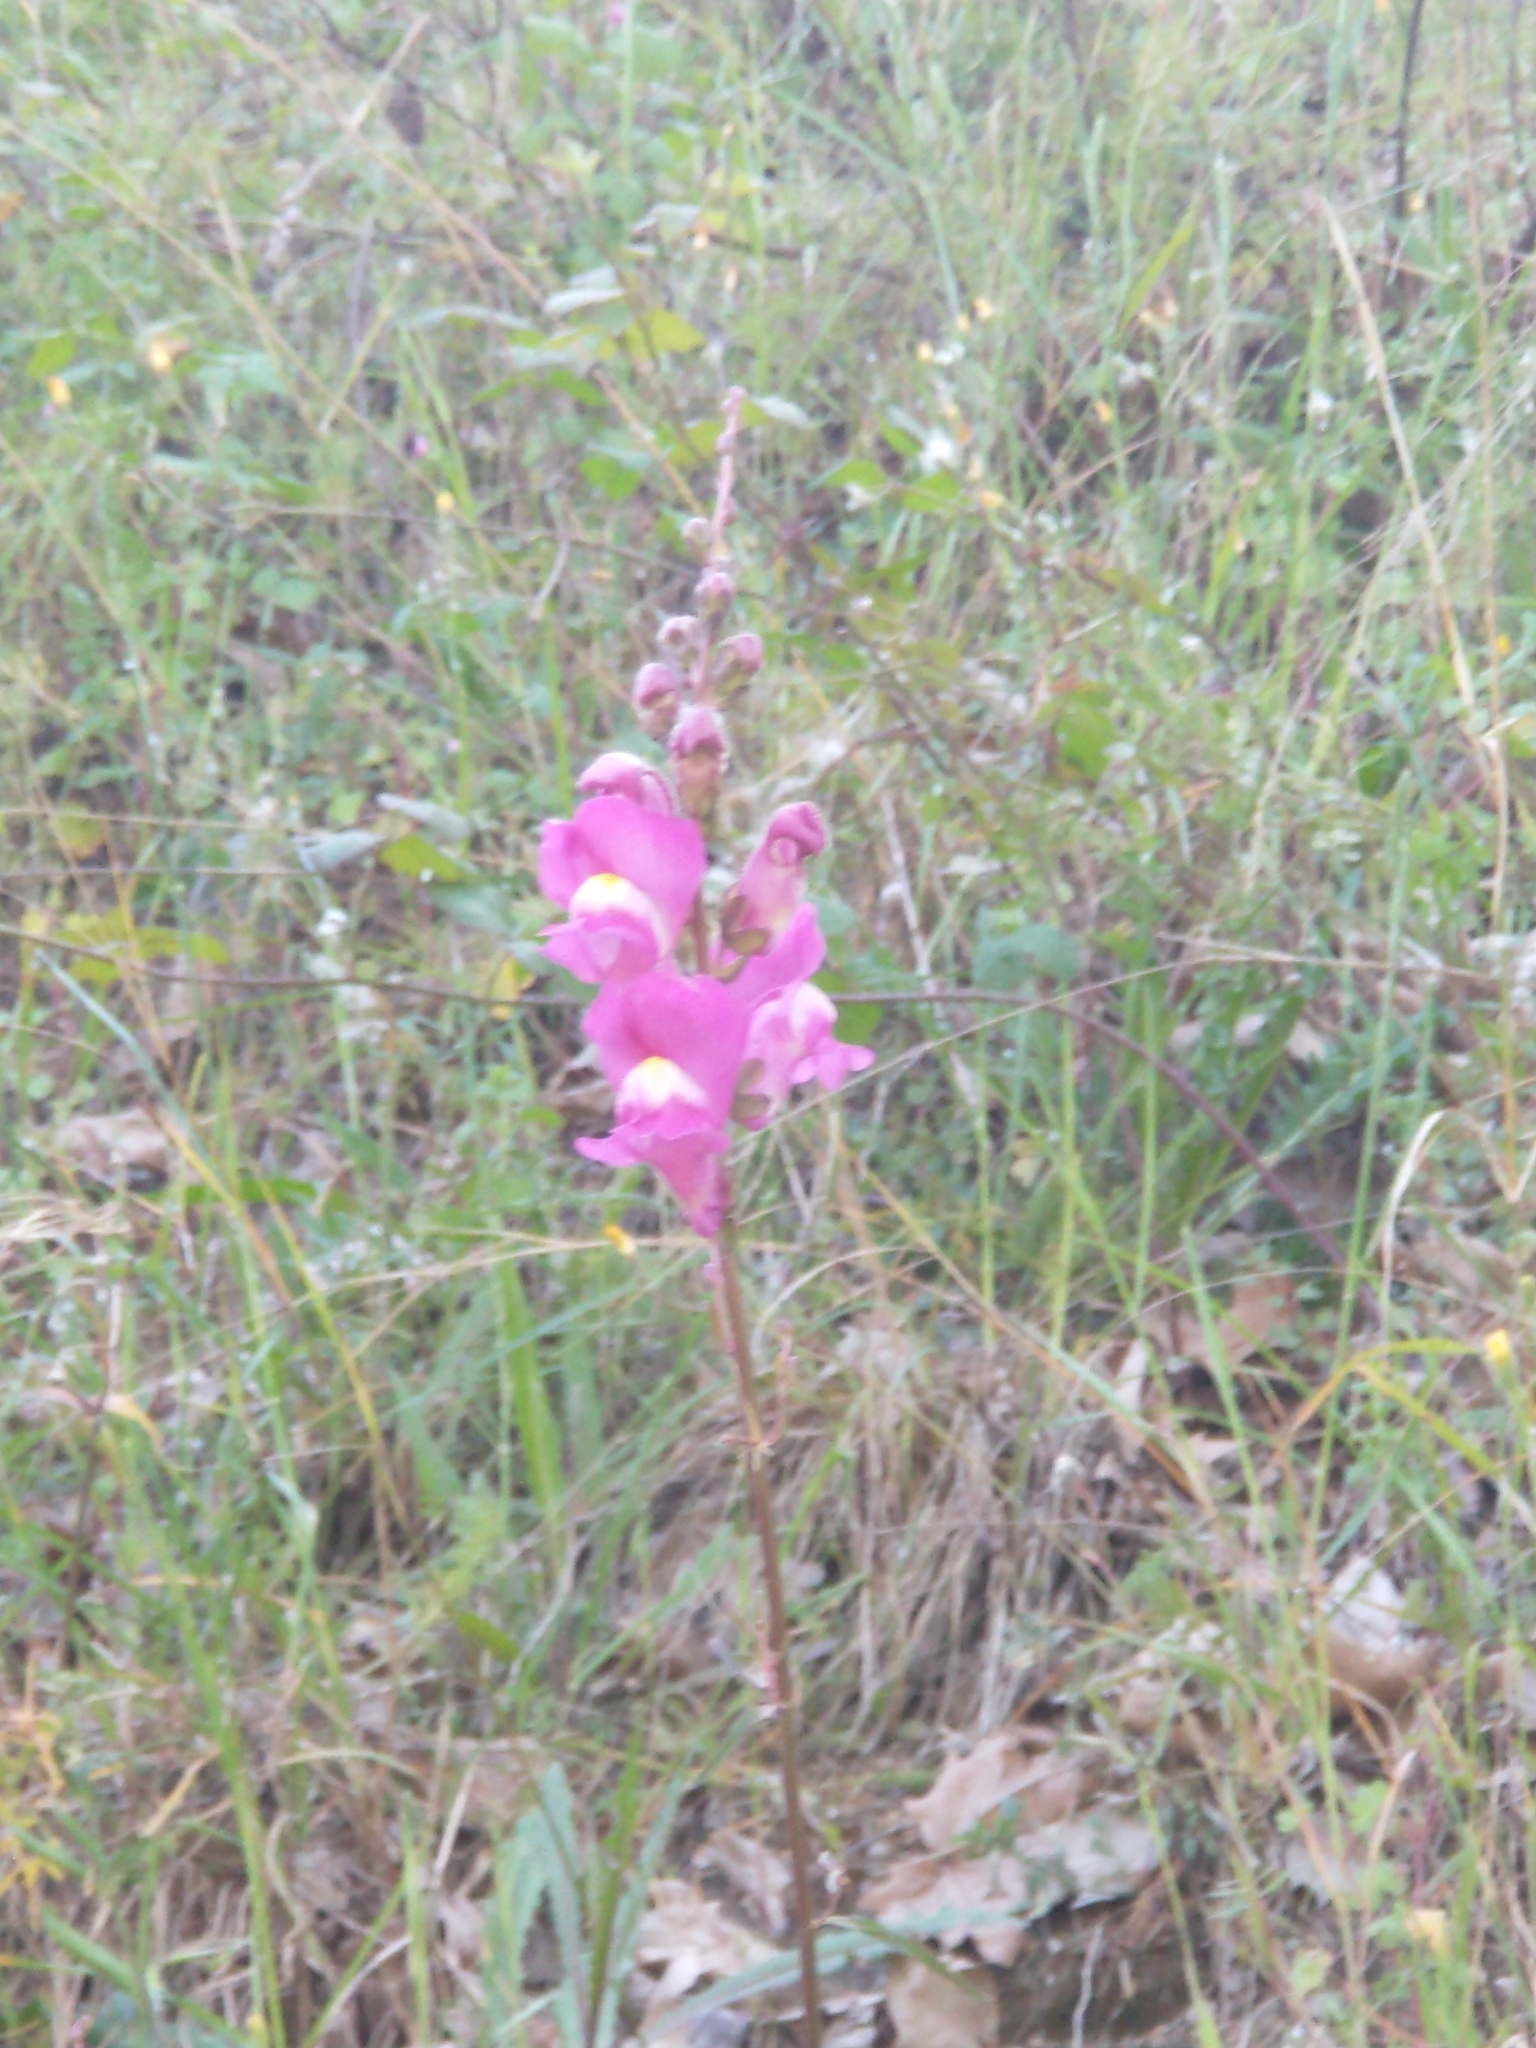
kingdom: Plantae
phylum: Tracheophyta
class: Magnoliopsida
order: Lamiales
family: Plantaginaceae
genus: Antirrhinum
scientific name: Antirrhinum majus
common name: Snapdragon
